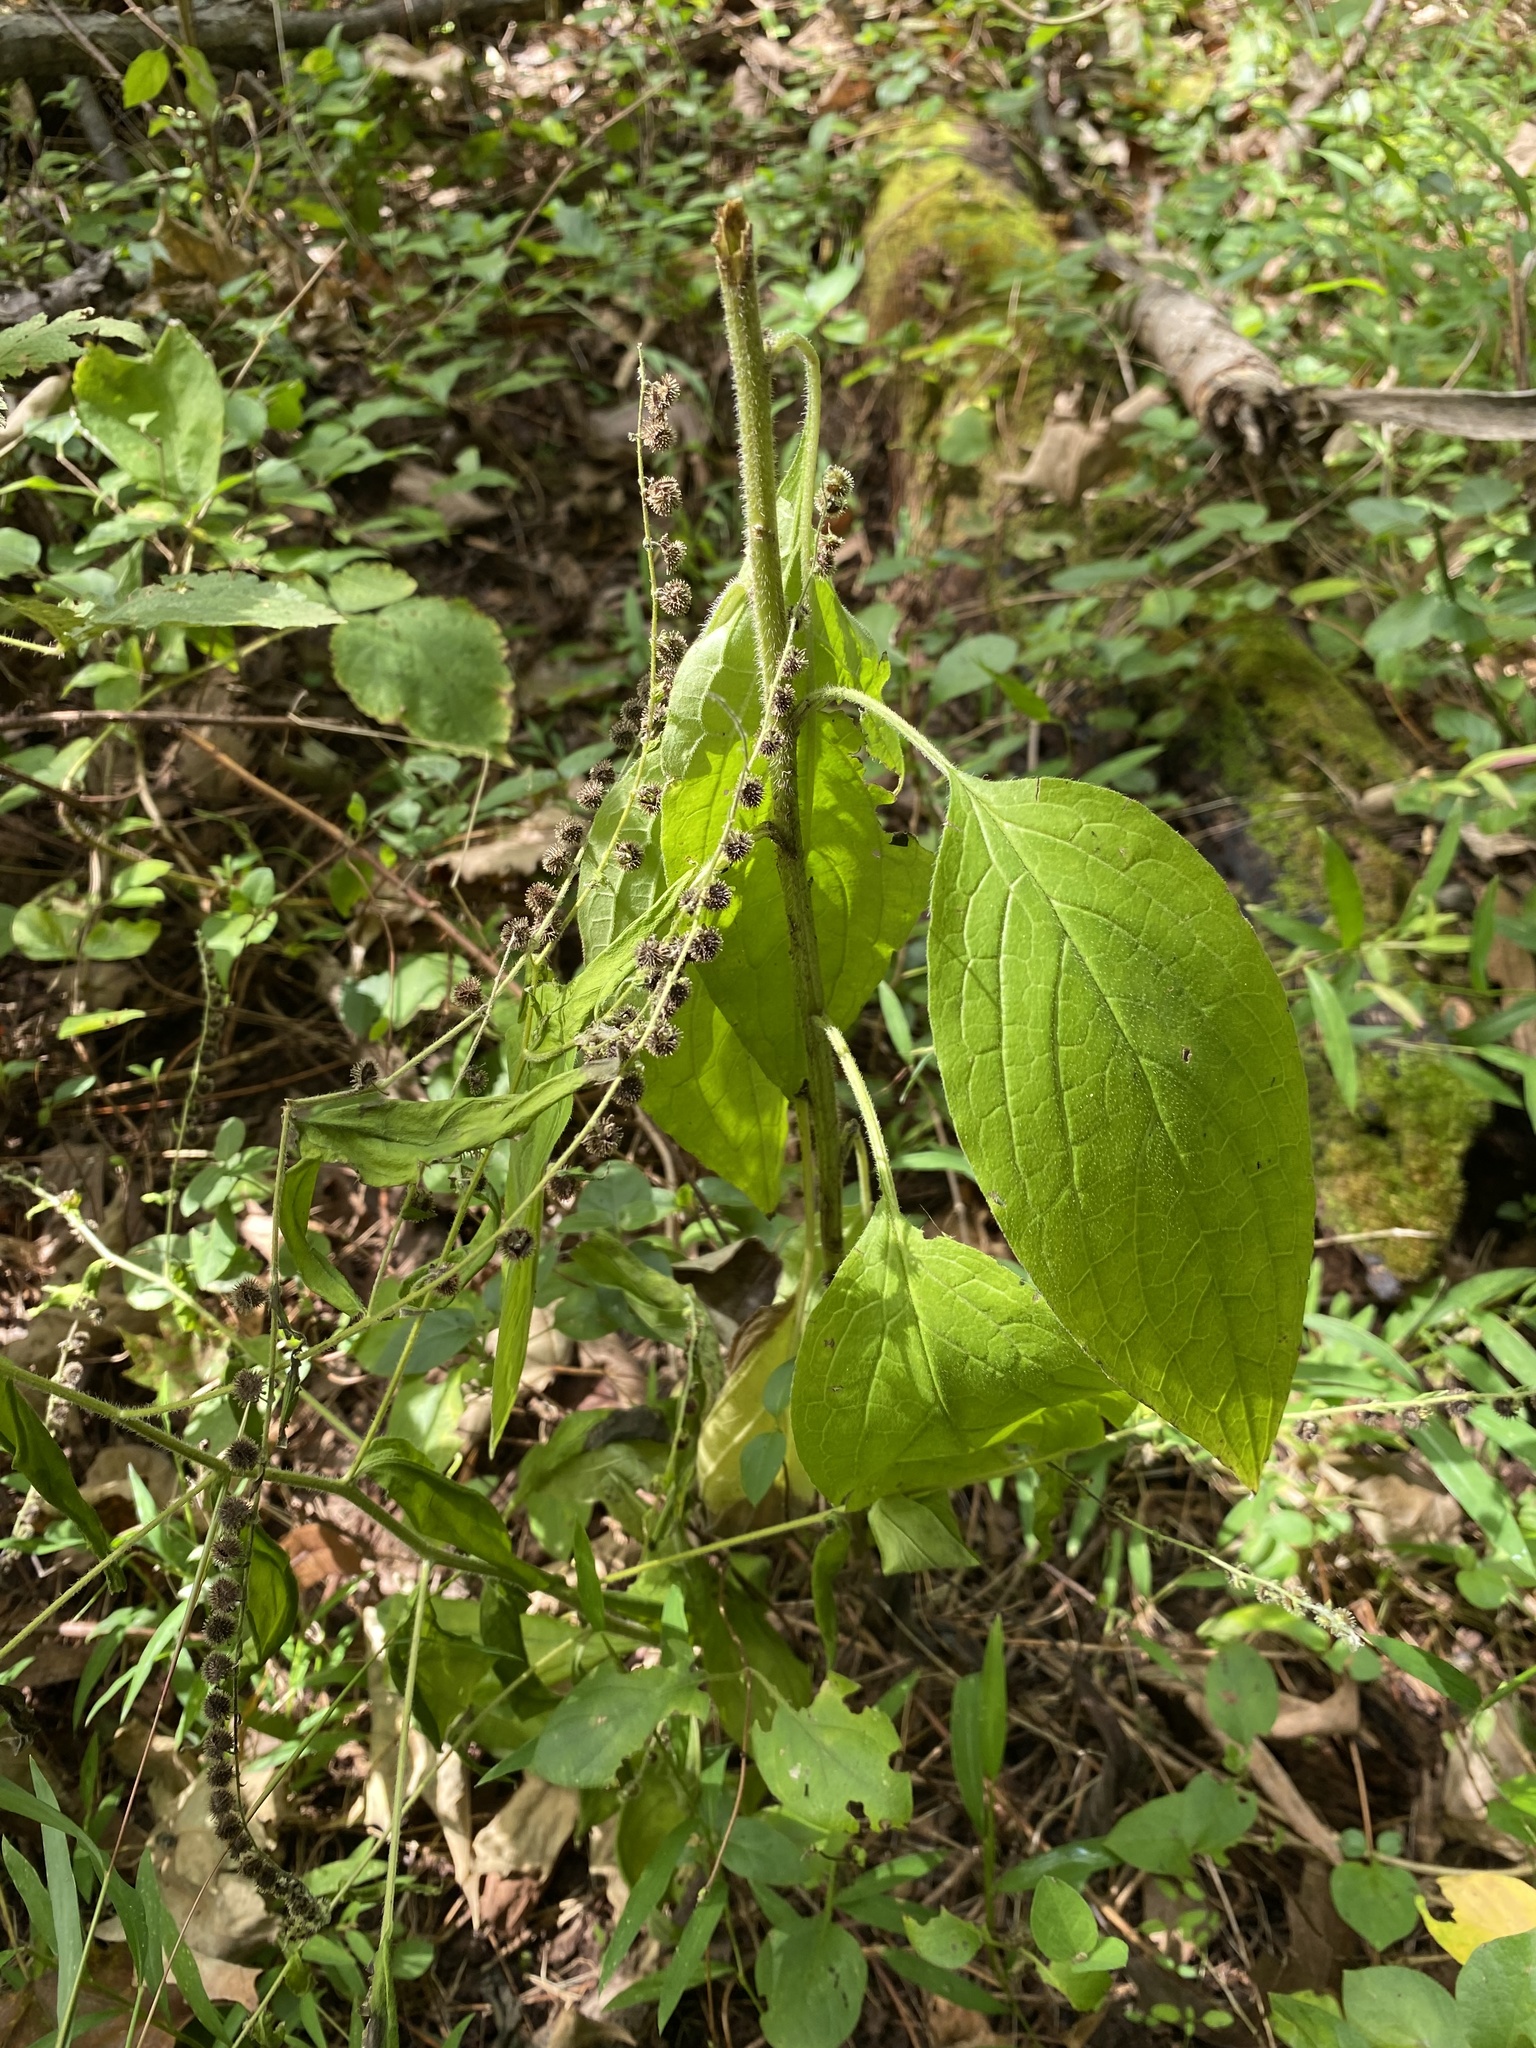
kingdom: Plantae
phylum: Tracheophyta
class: Magnoliopsida
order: Boraginales
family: Boraginaceae
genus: Hackelia
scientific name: Hackelia virginiana
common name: Beggar's-lice
